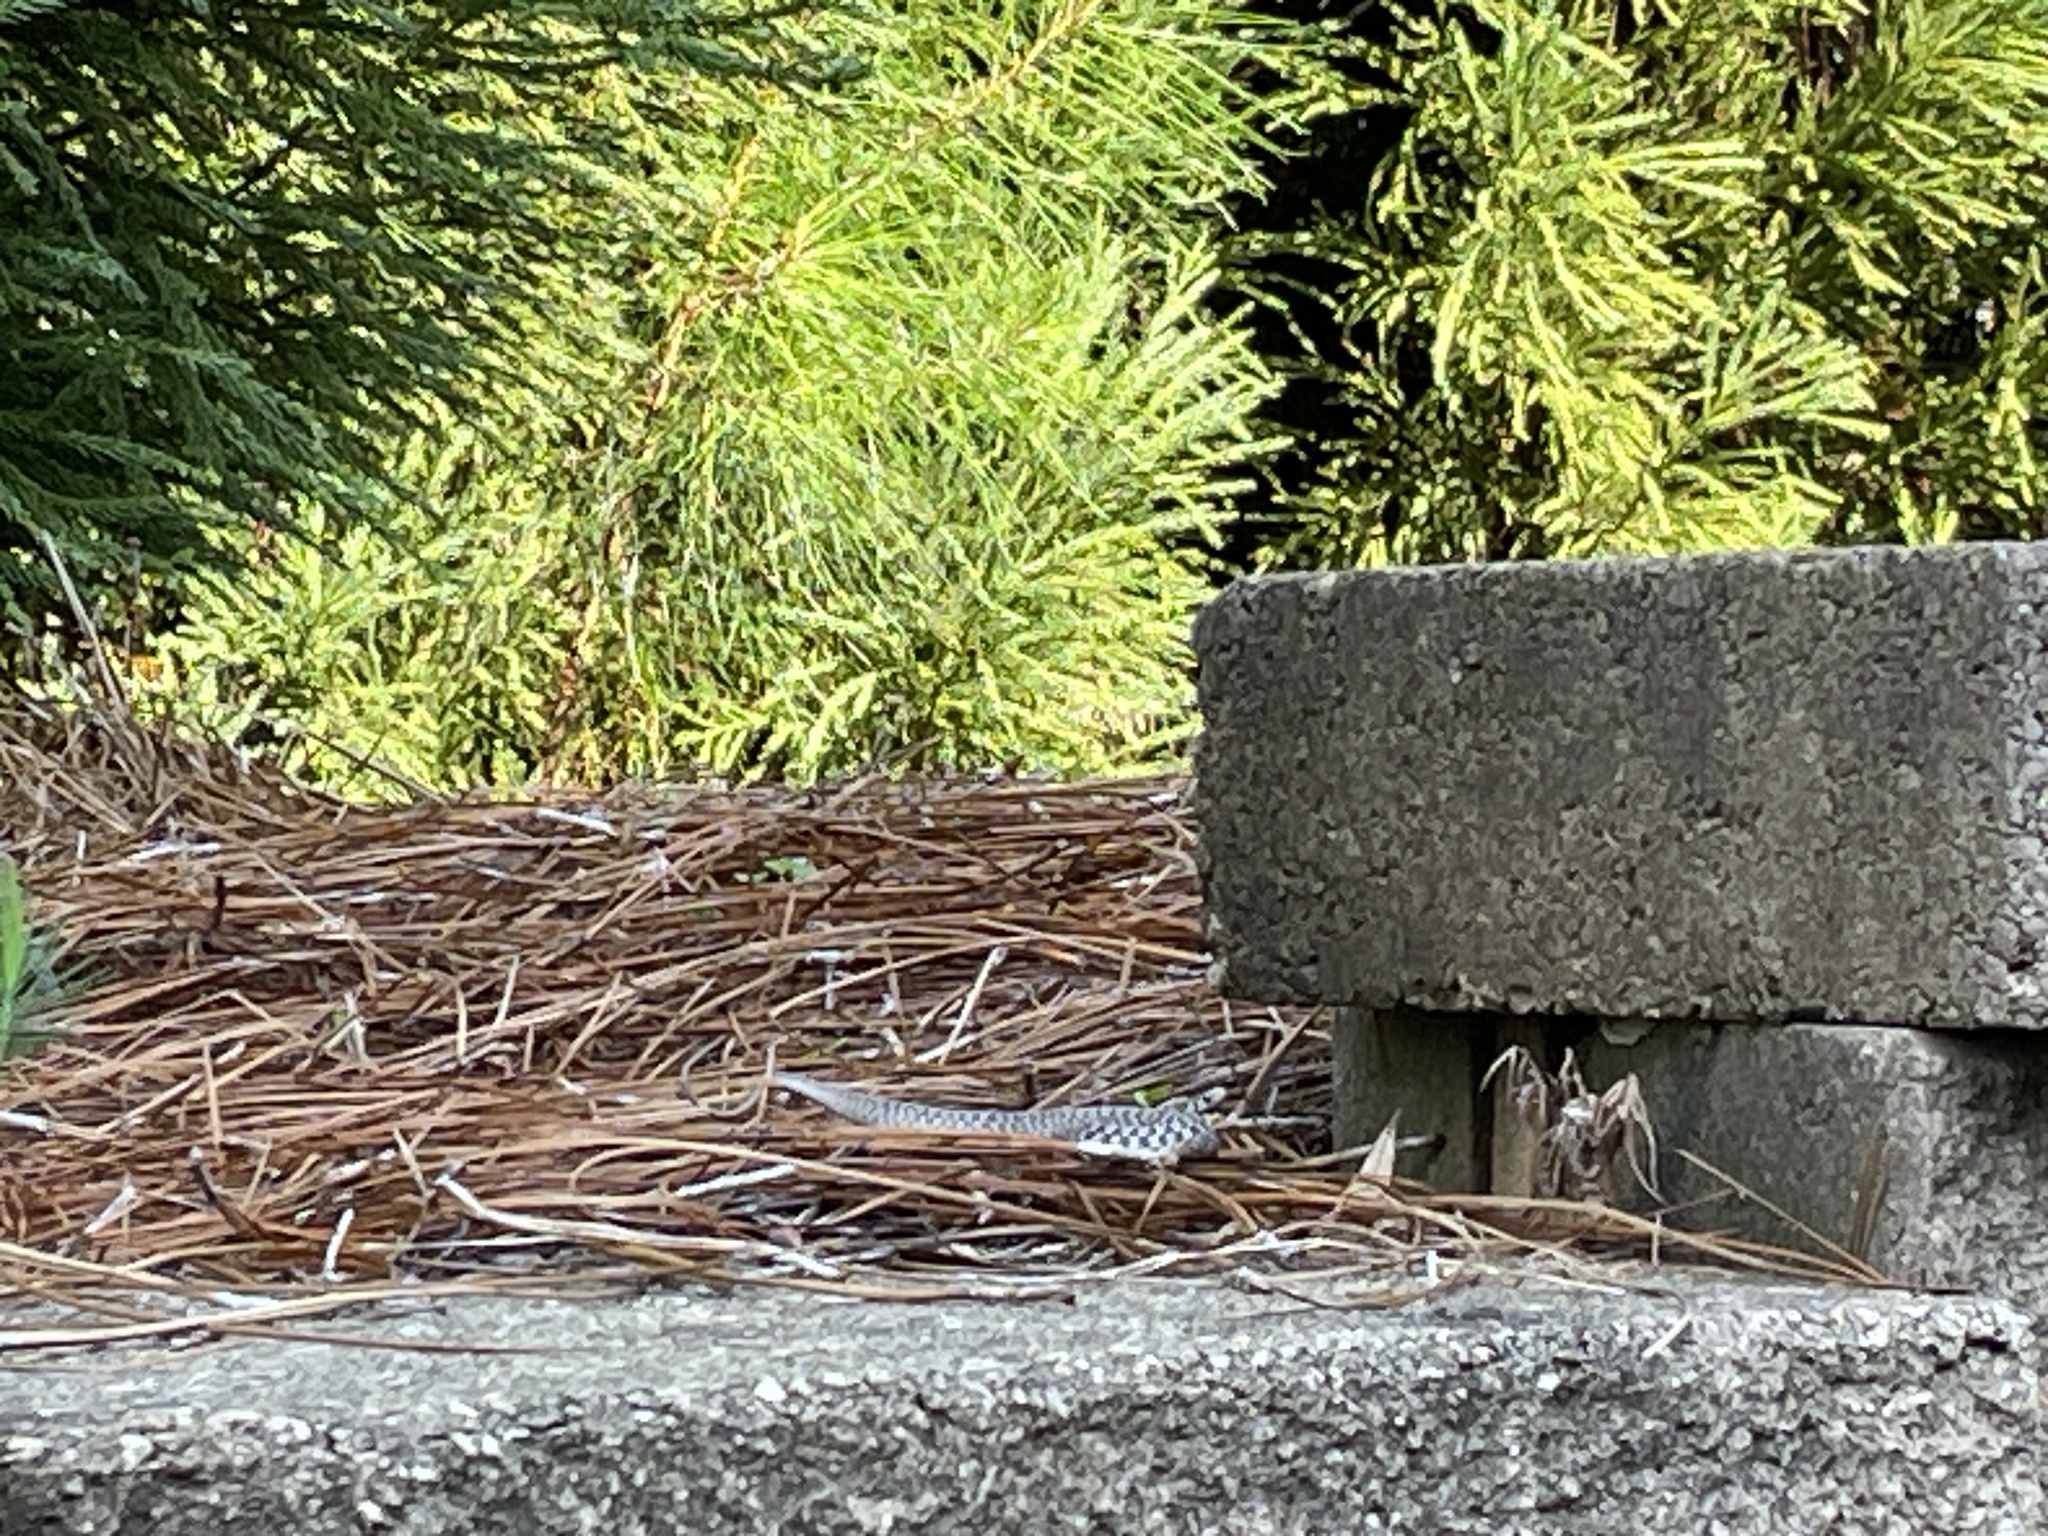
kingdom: Animalia
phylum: Chordata
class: Squamata
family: Colubridae
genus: Storeria
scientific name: Storeria dekayi
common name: (dekay’s) brown snake
